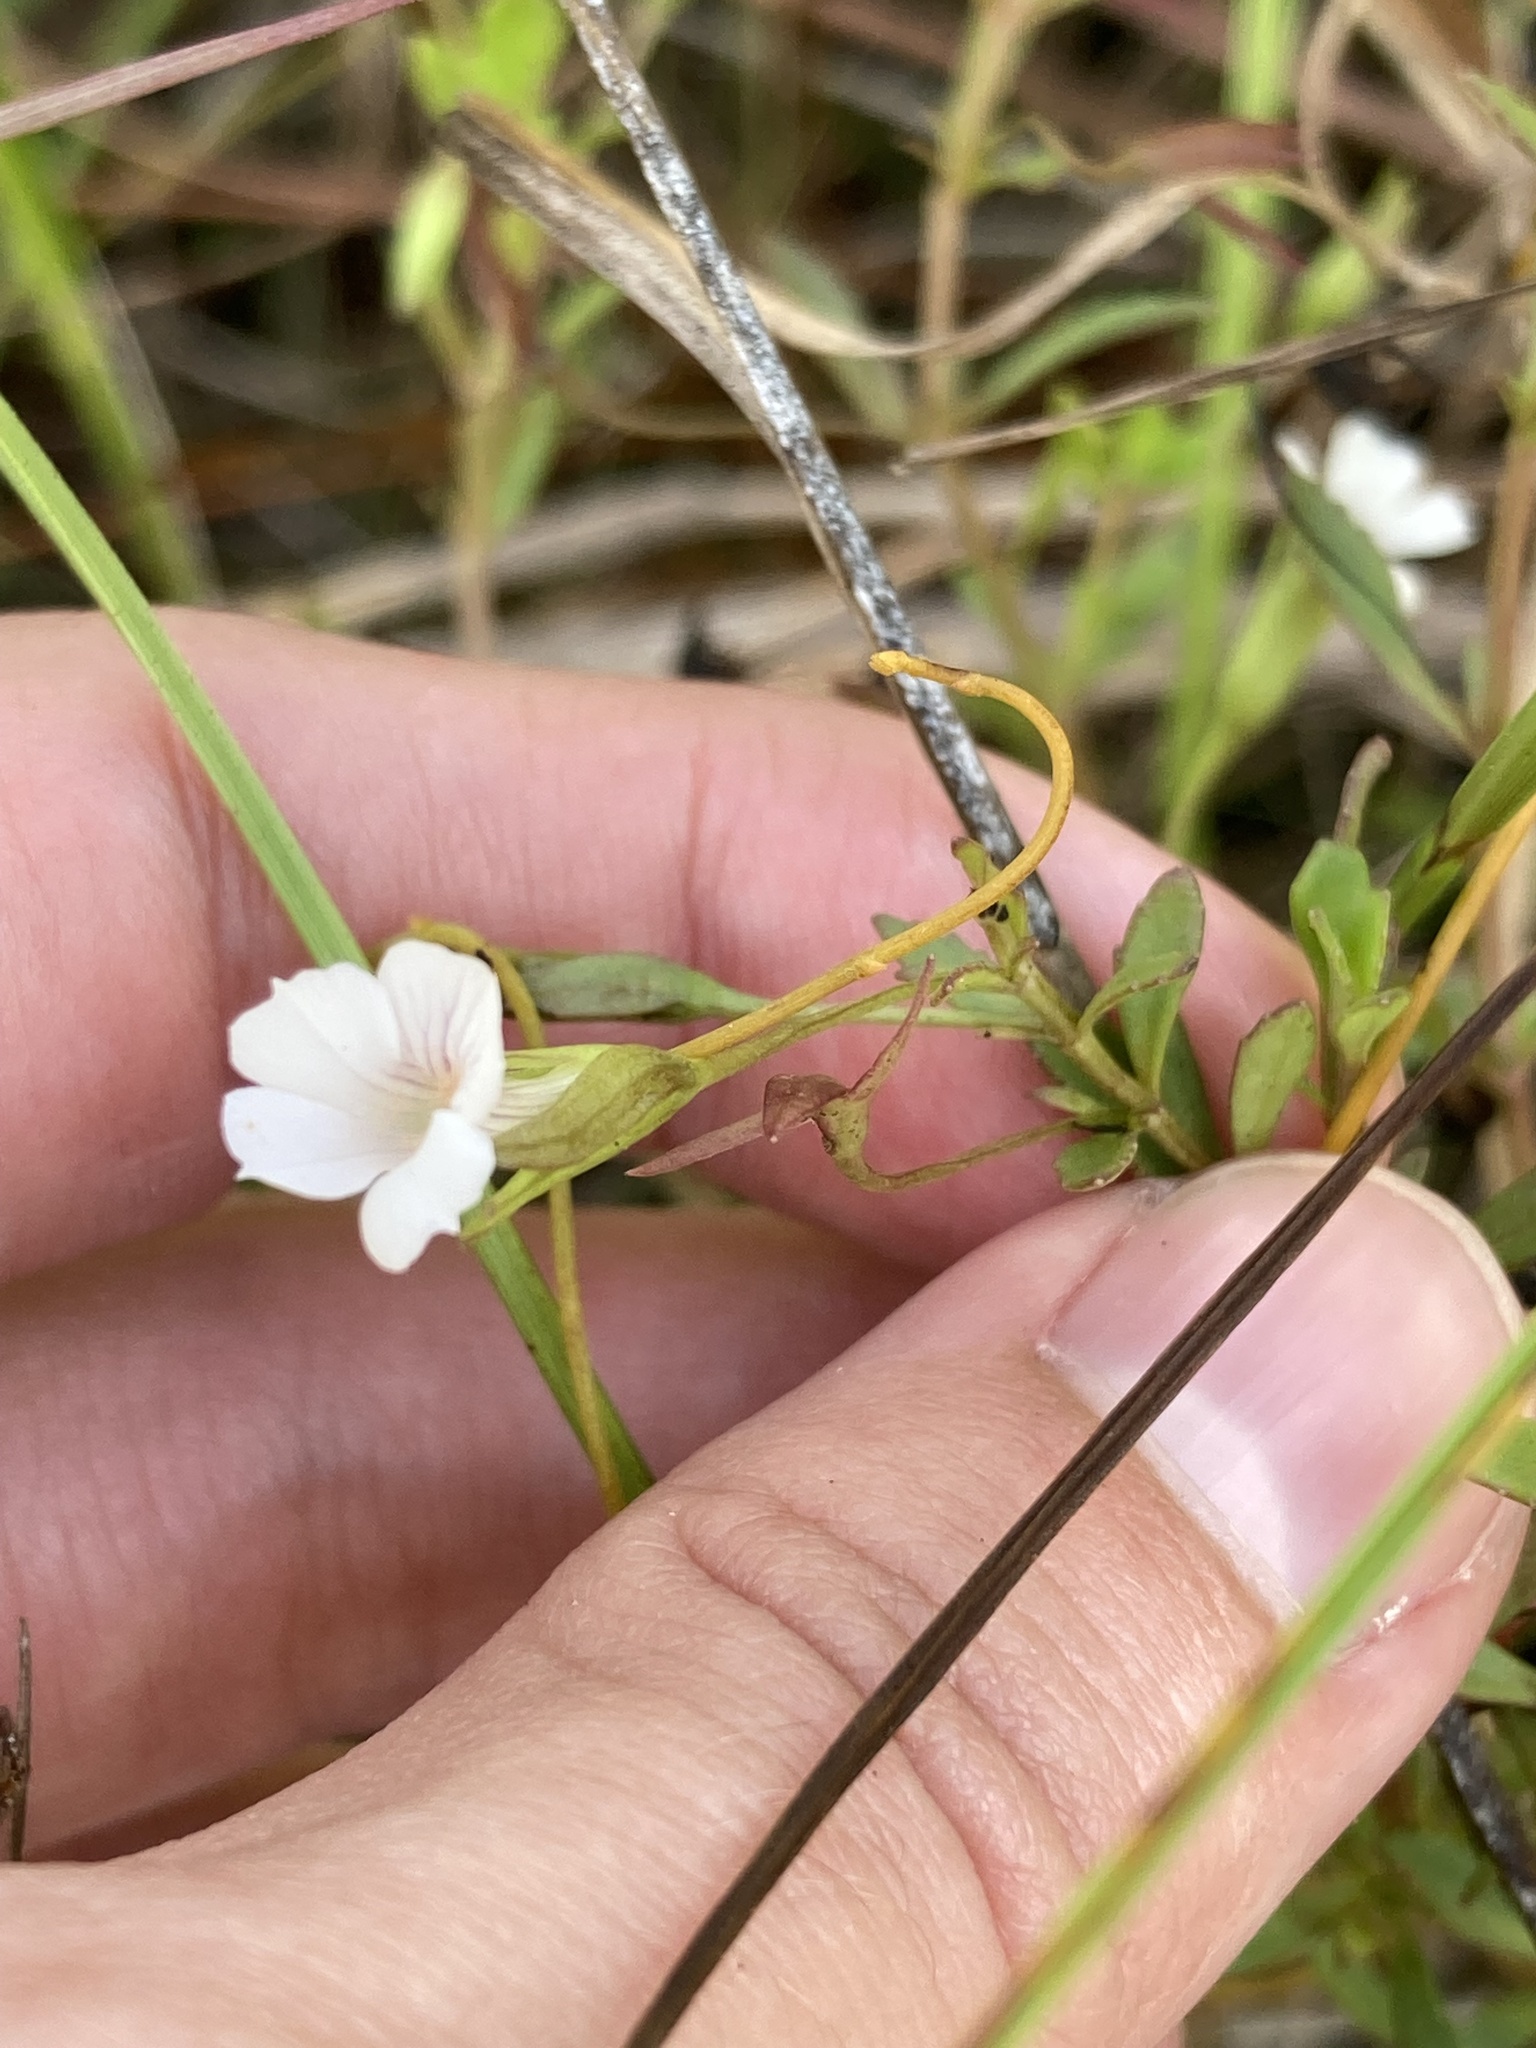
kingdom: Plantae
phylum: Tracheophyta
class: Magnoliopsida
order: Lamiales
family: Plantaginaceae
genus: Mecardonia
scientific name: Mecardonia acuminata
